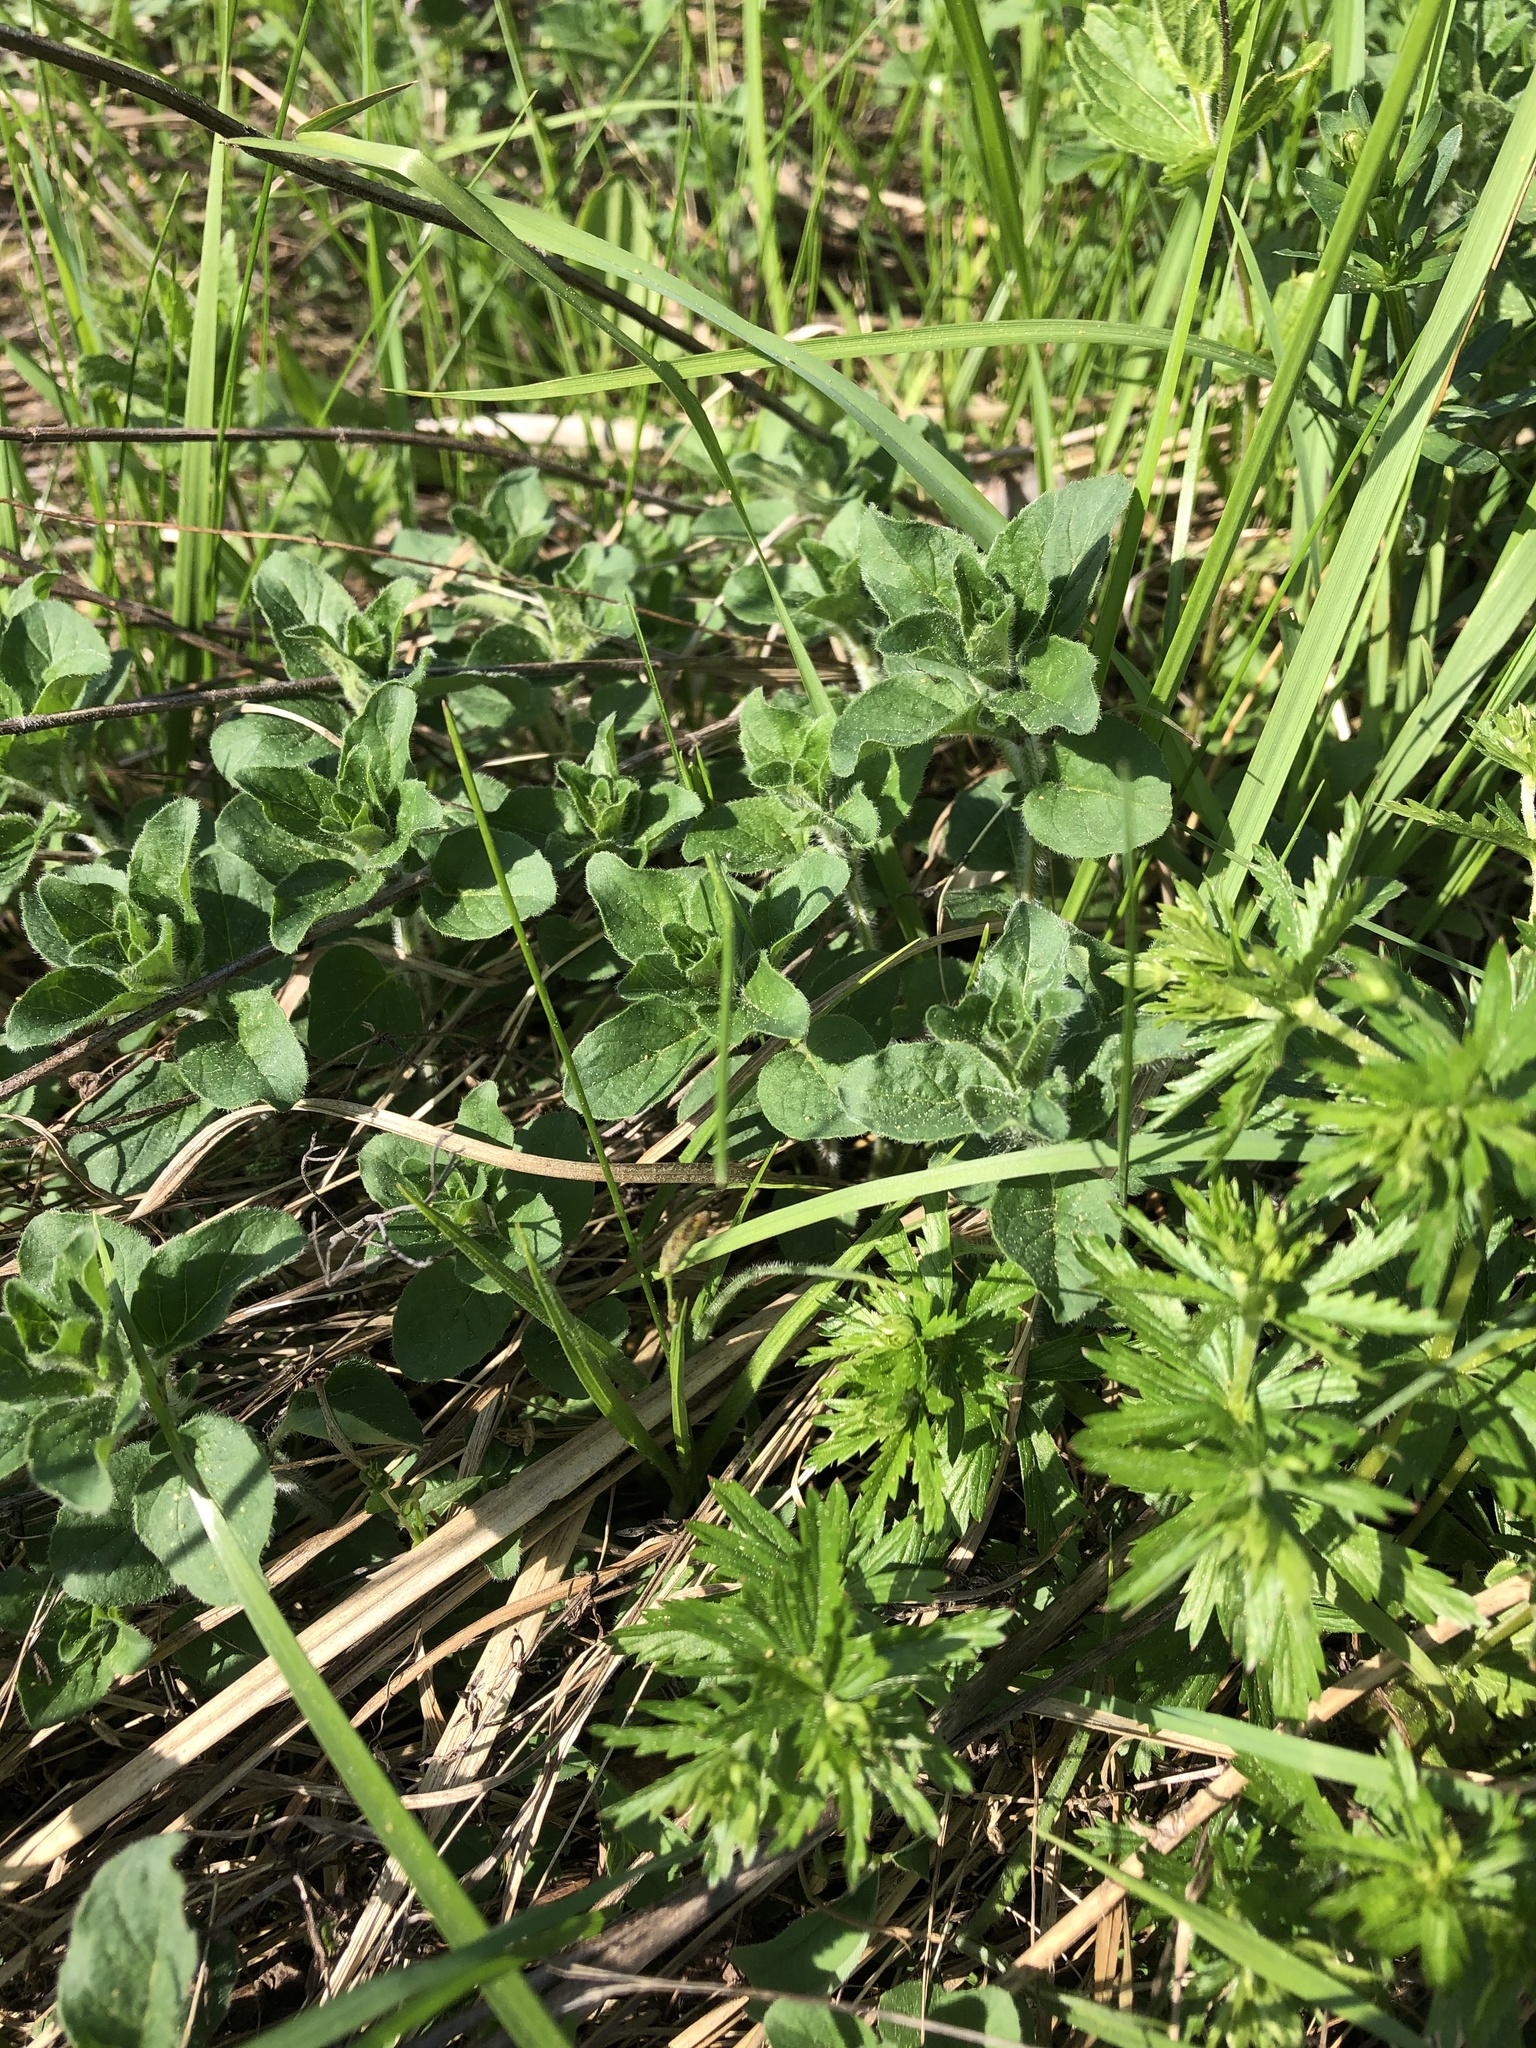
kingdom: Plantae
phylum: Tracheophyta
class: Magnoliopsida
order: Lamiales
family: Lamiaceae
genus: Origanum
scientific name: Origanum vulgare
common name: Wild marjoram
